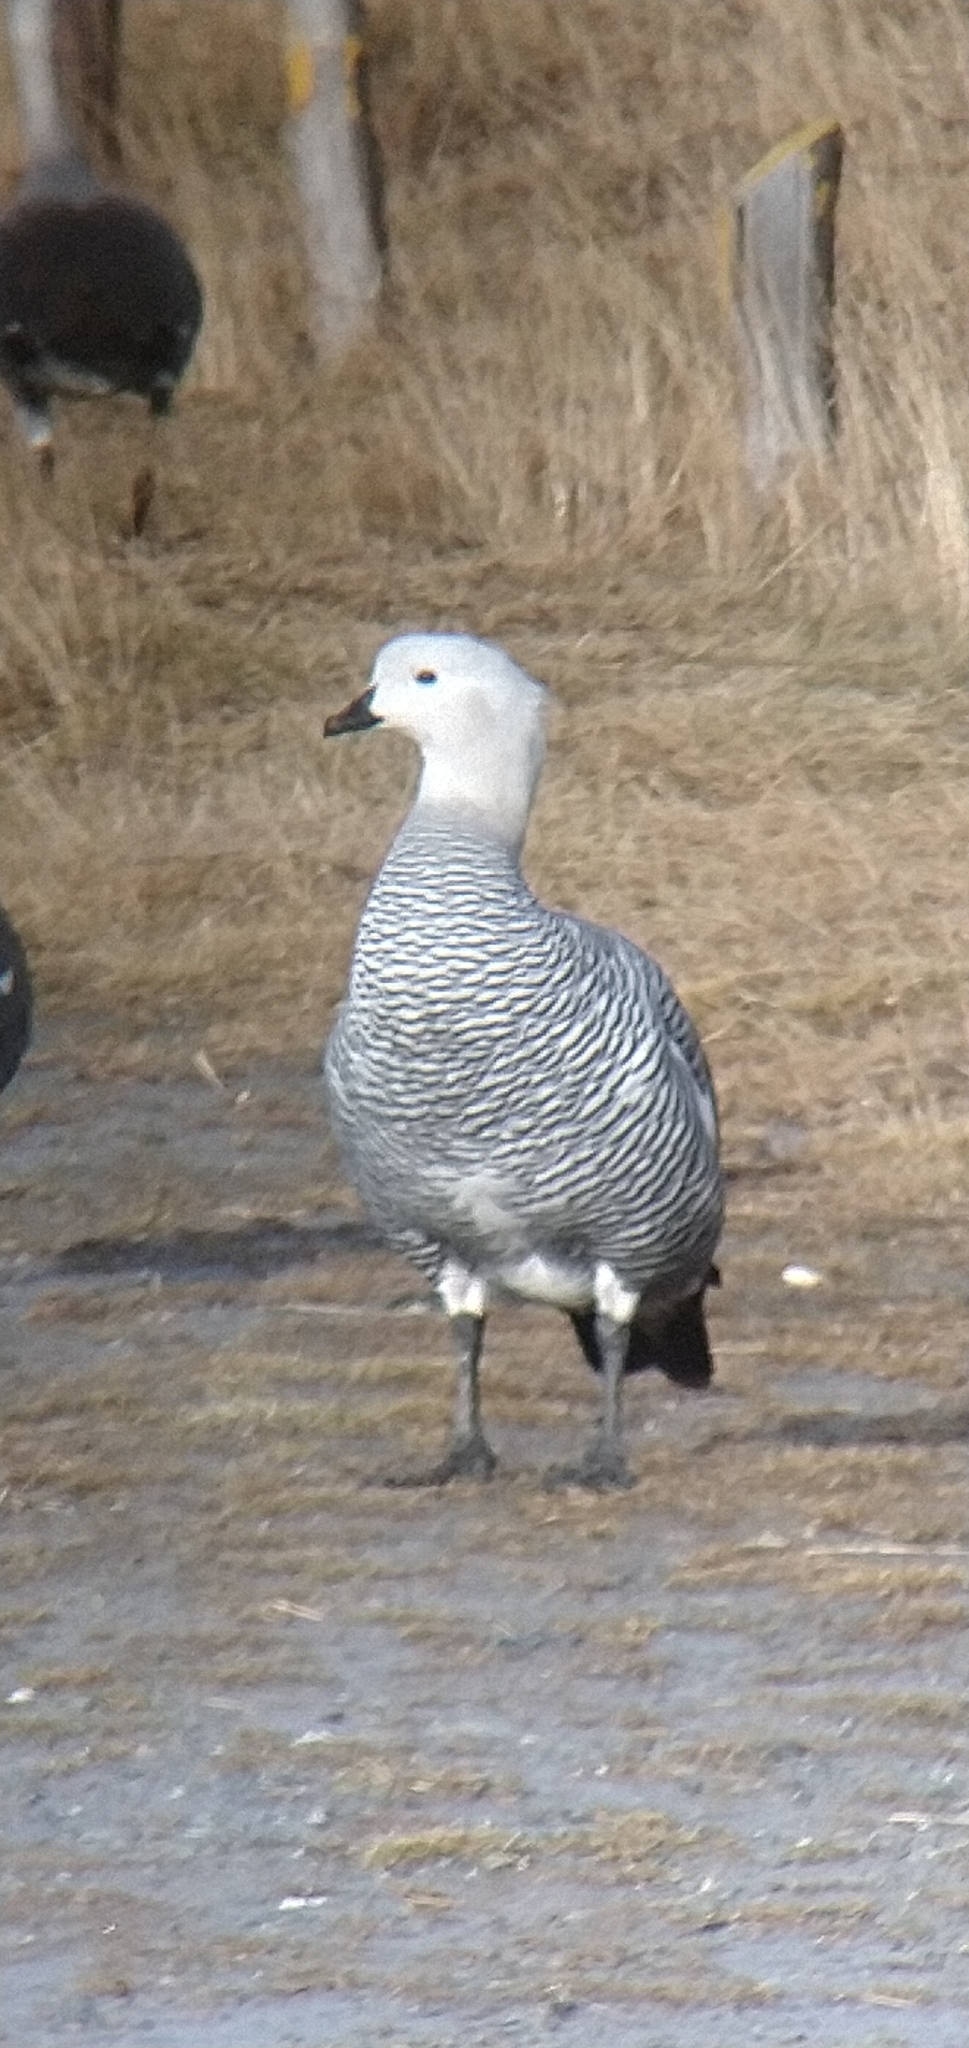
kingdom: Animalia
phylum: Chordata
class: Aves
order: Anseriformes
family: Anatidae
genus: Chloephaga
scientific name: Chloephaga picta
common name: Upland goose
